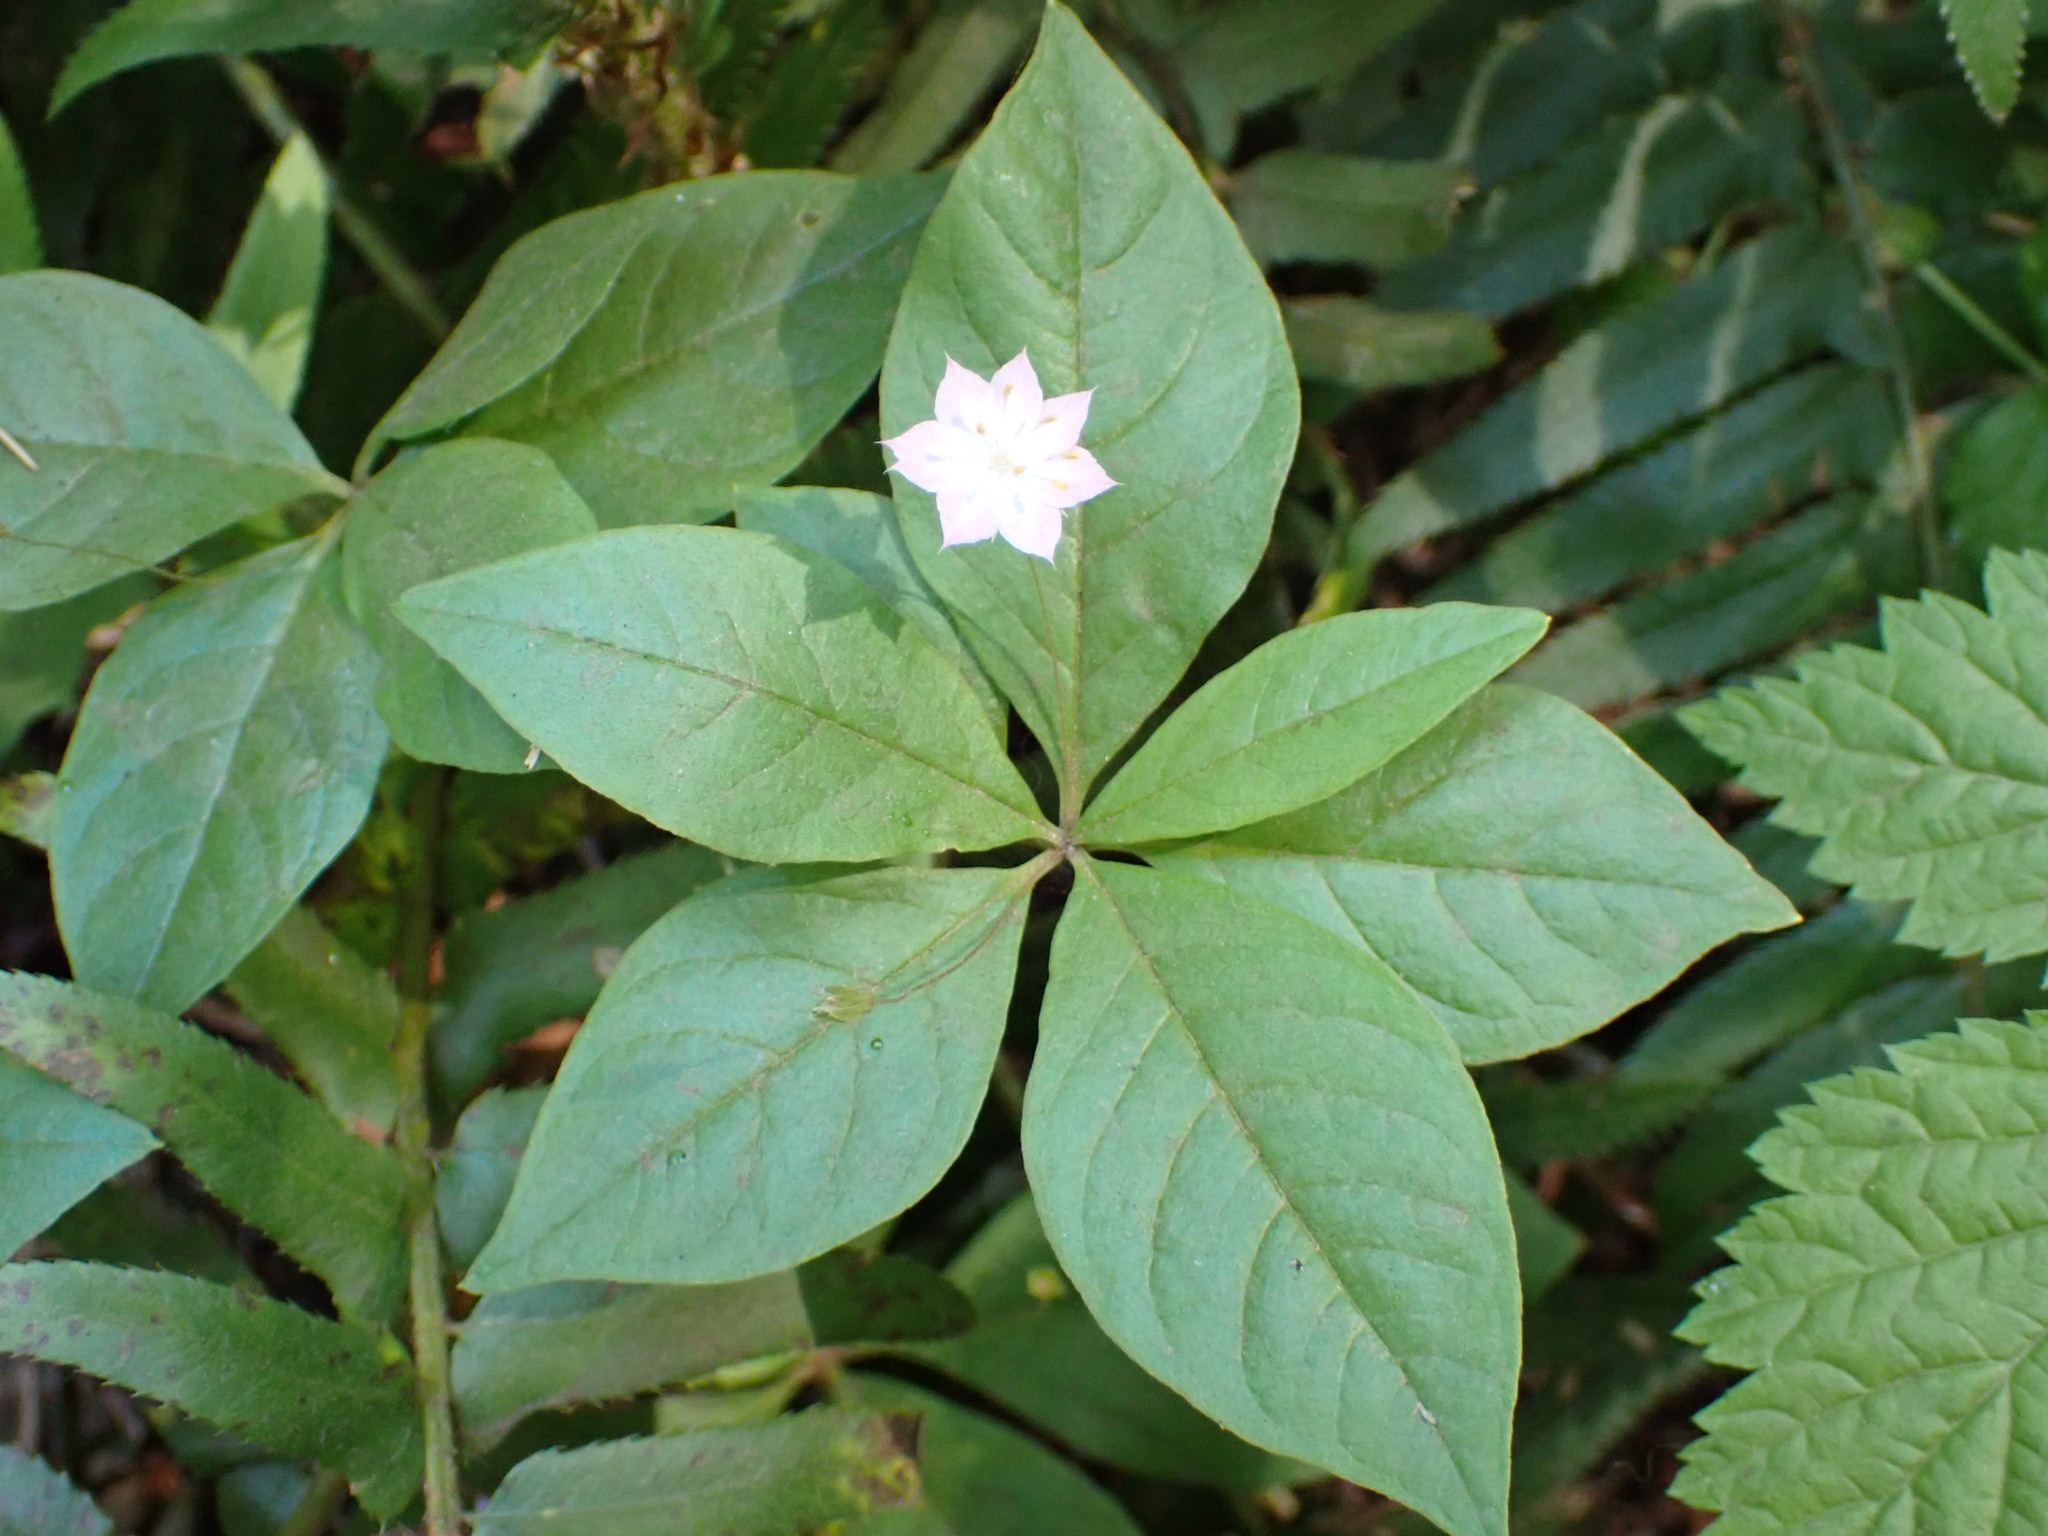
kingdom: Plantae
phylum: Tracheophyta
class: Magnoliopsida
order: Ericales
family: Primulaceae
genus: Lysimachia
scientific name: Lysimachia latifolia
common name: Pacific starflower
